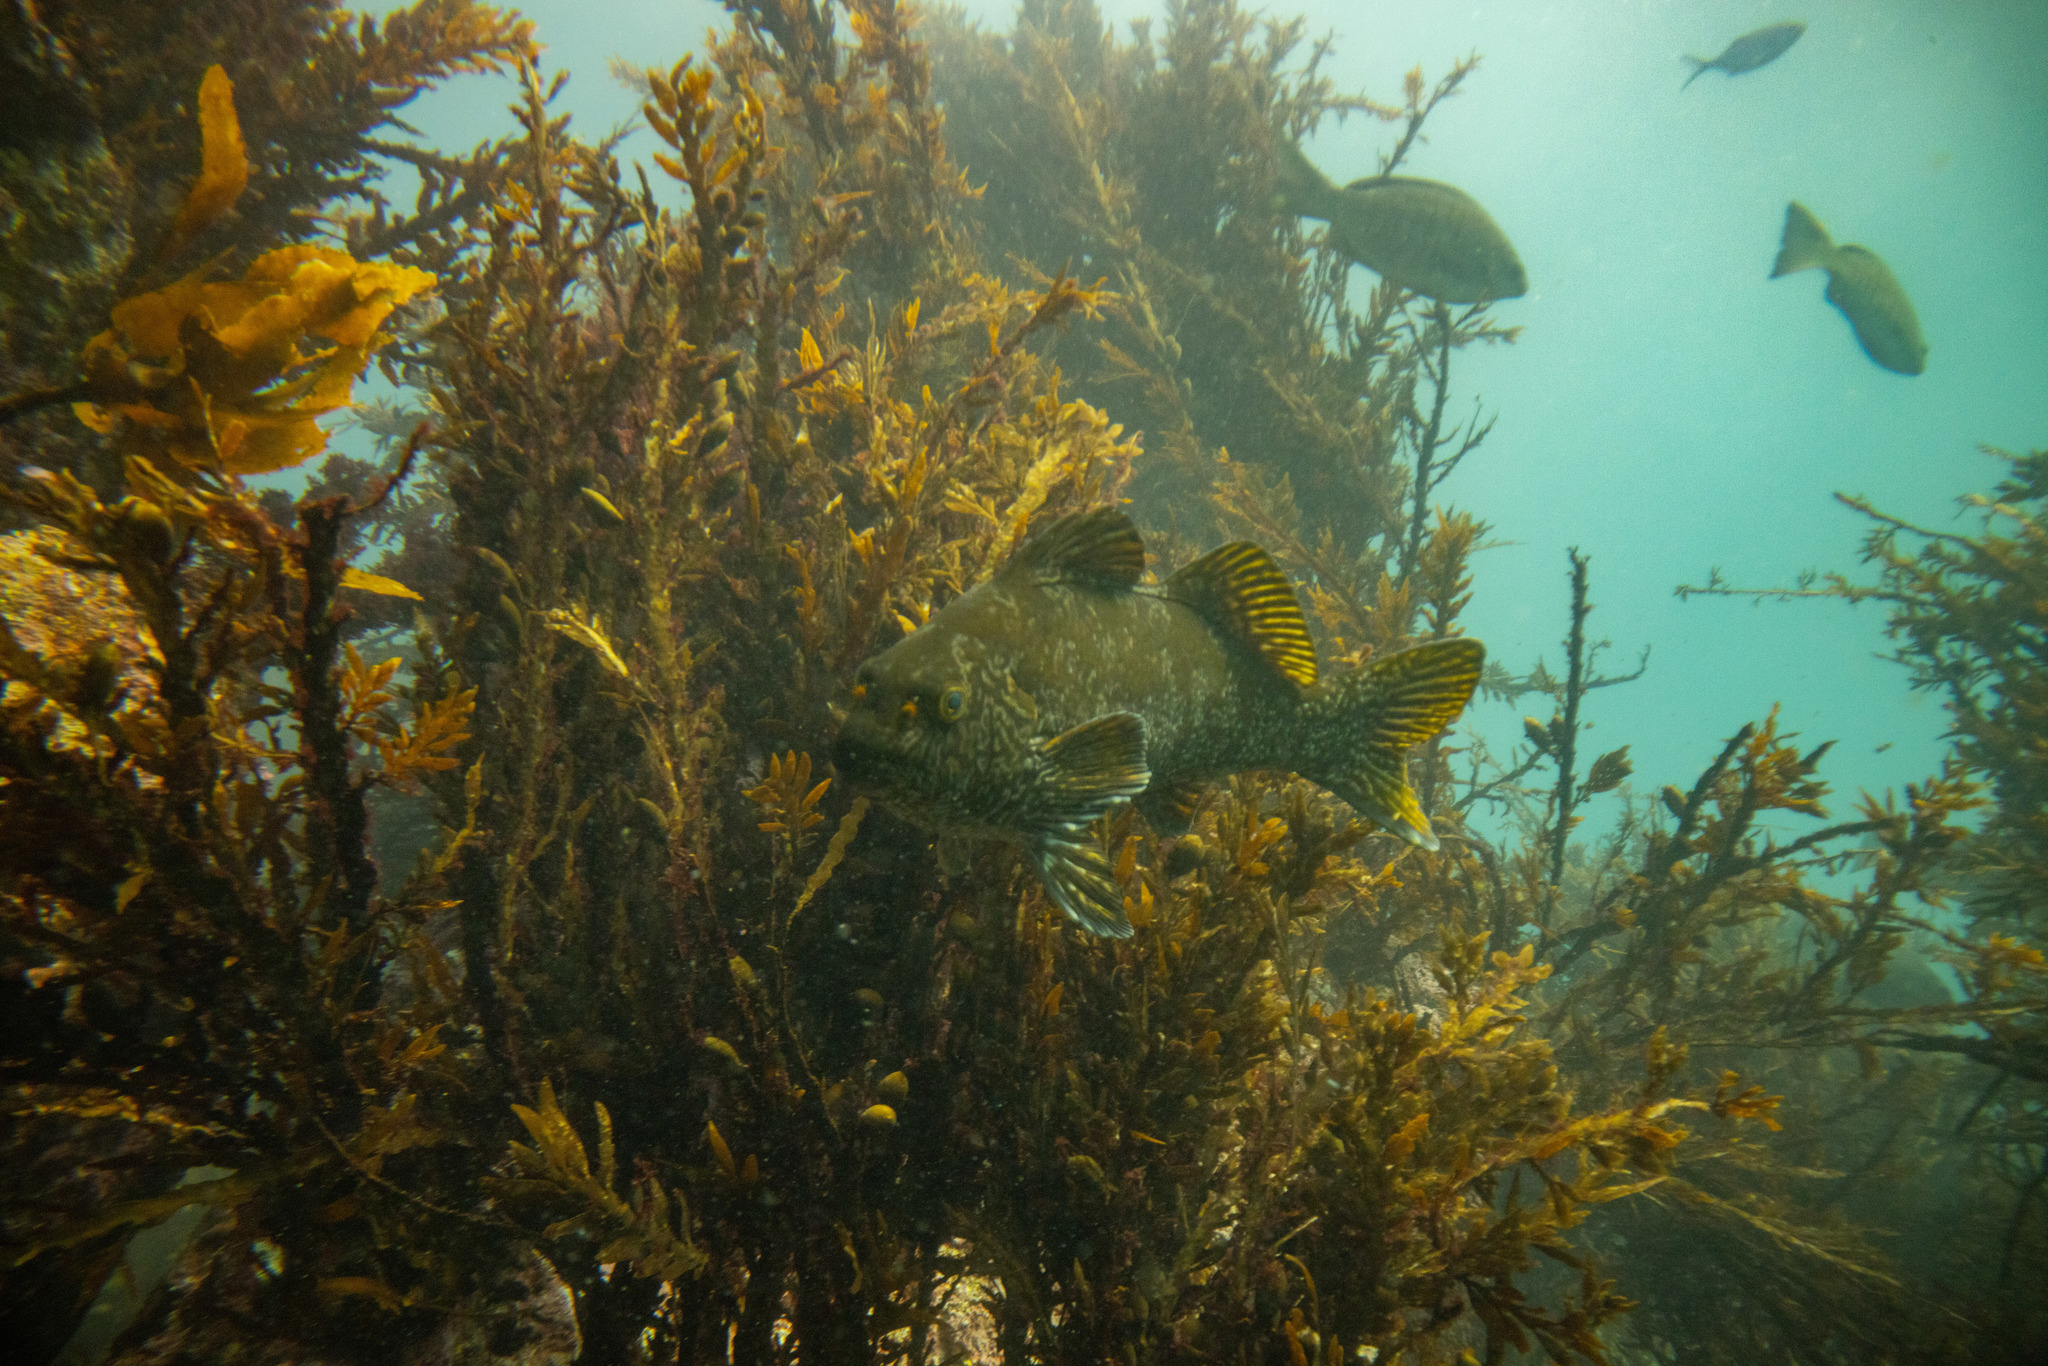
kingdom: Animalia
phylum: Chordata
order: Perciformes
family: Aplodactylidae
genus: Aplodactylus
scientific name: Aplodactylus arctidens
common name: Marblefish
